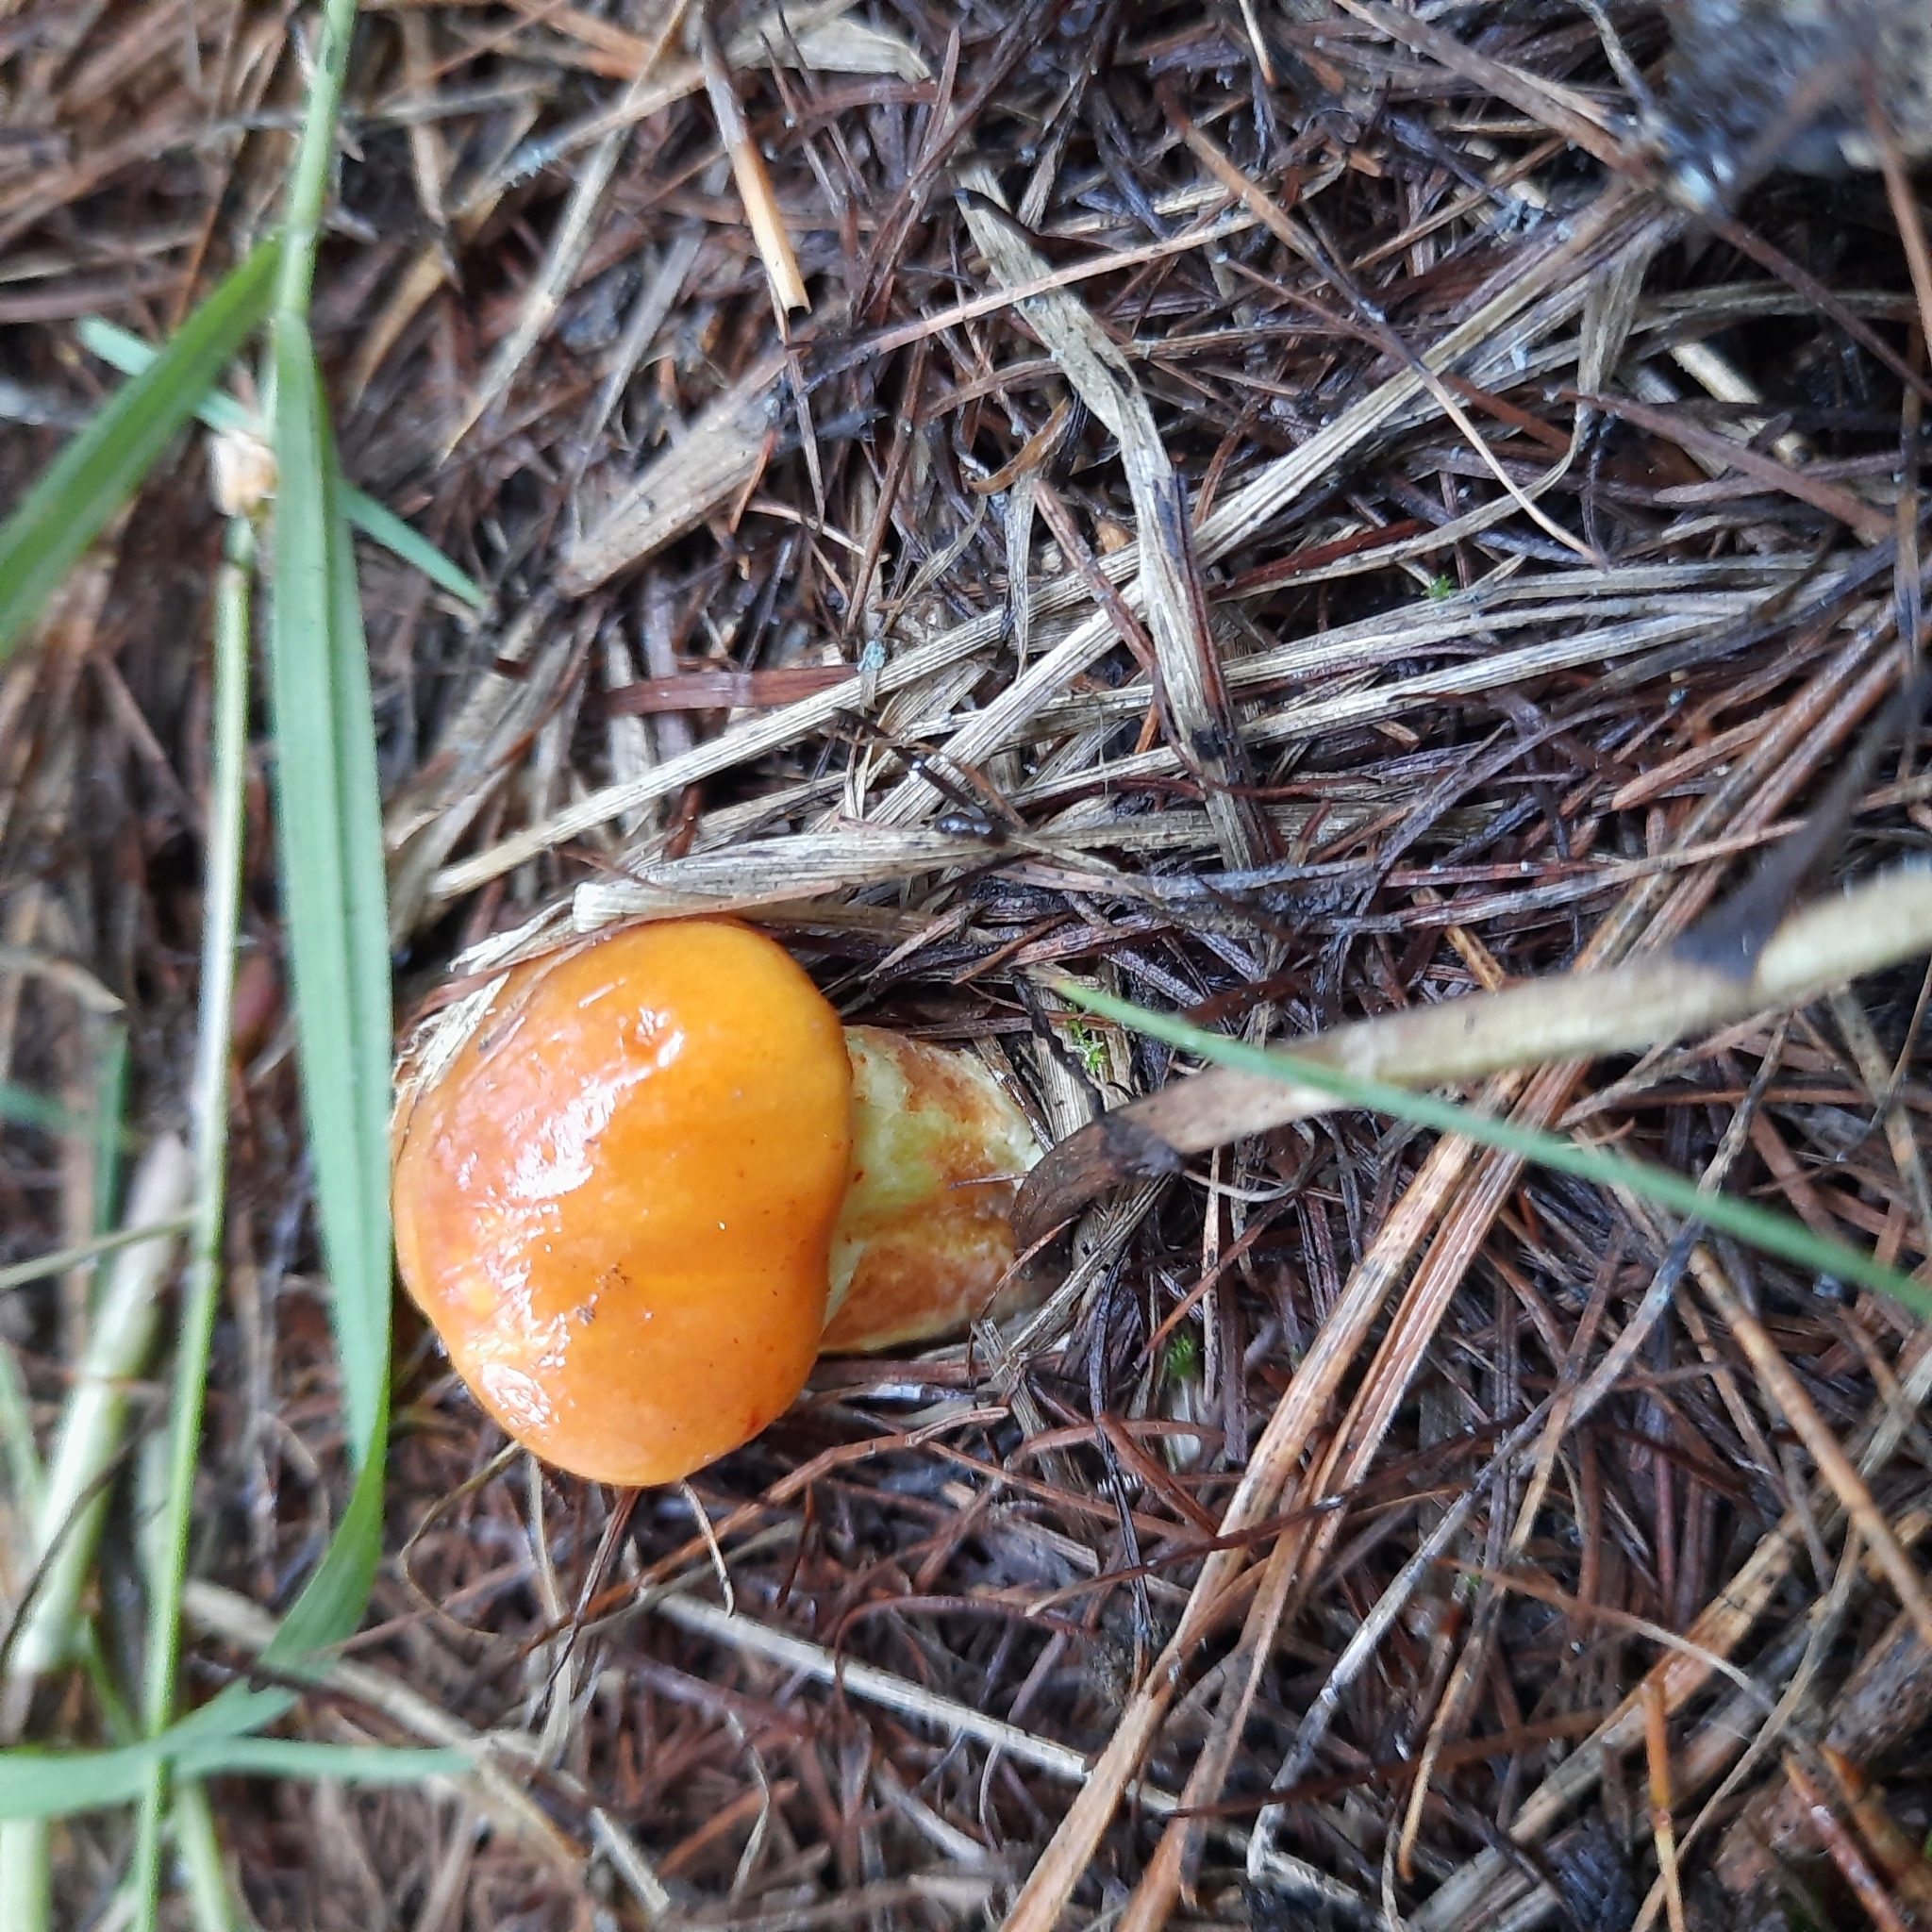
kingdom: Fungi
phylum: Basidiomycota
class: Agaricomycetes
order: Boletales
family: Suillaceae
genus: Suillus
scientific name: Suillus grevillei
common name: Larch bolete
